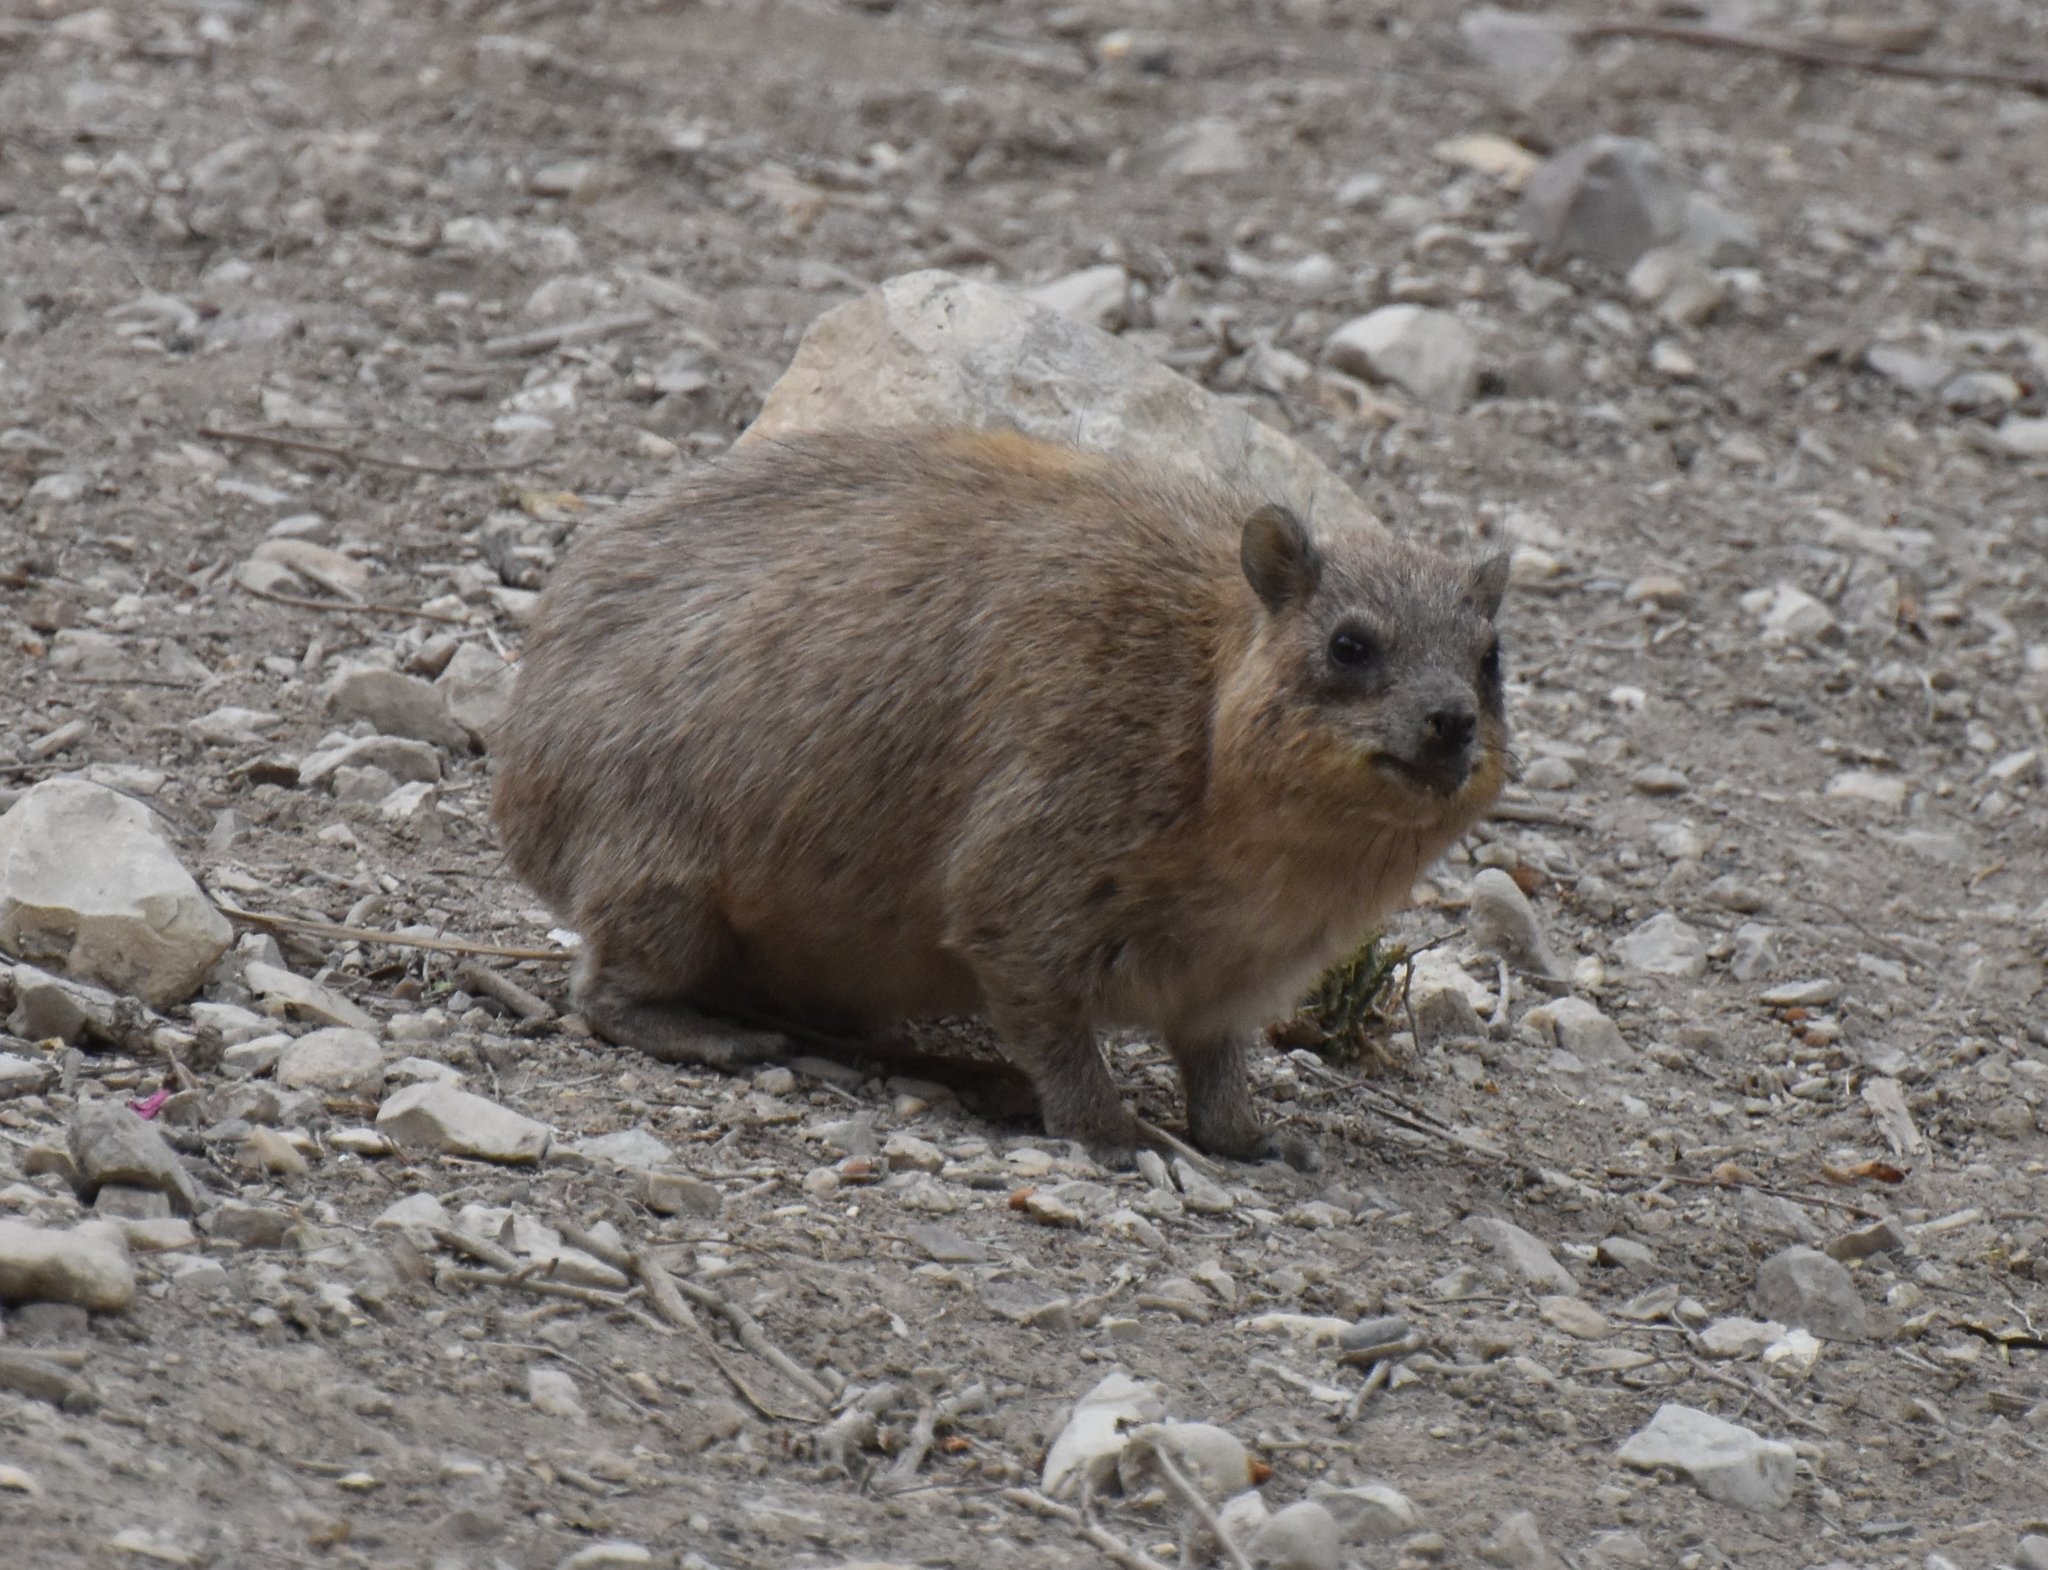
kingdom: Animalia
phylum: Chordata
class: Mammalia
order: Hyracoidea
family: Procaviidae
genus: Procavia
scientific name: Procavia capensis
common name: Rock hyrax
